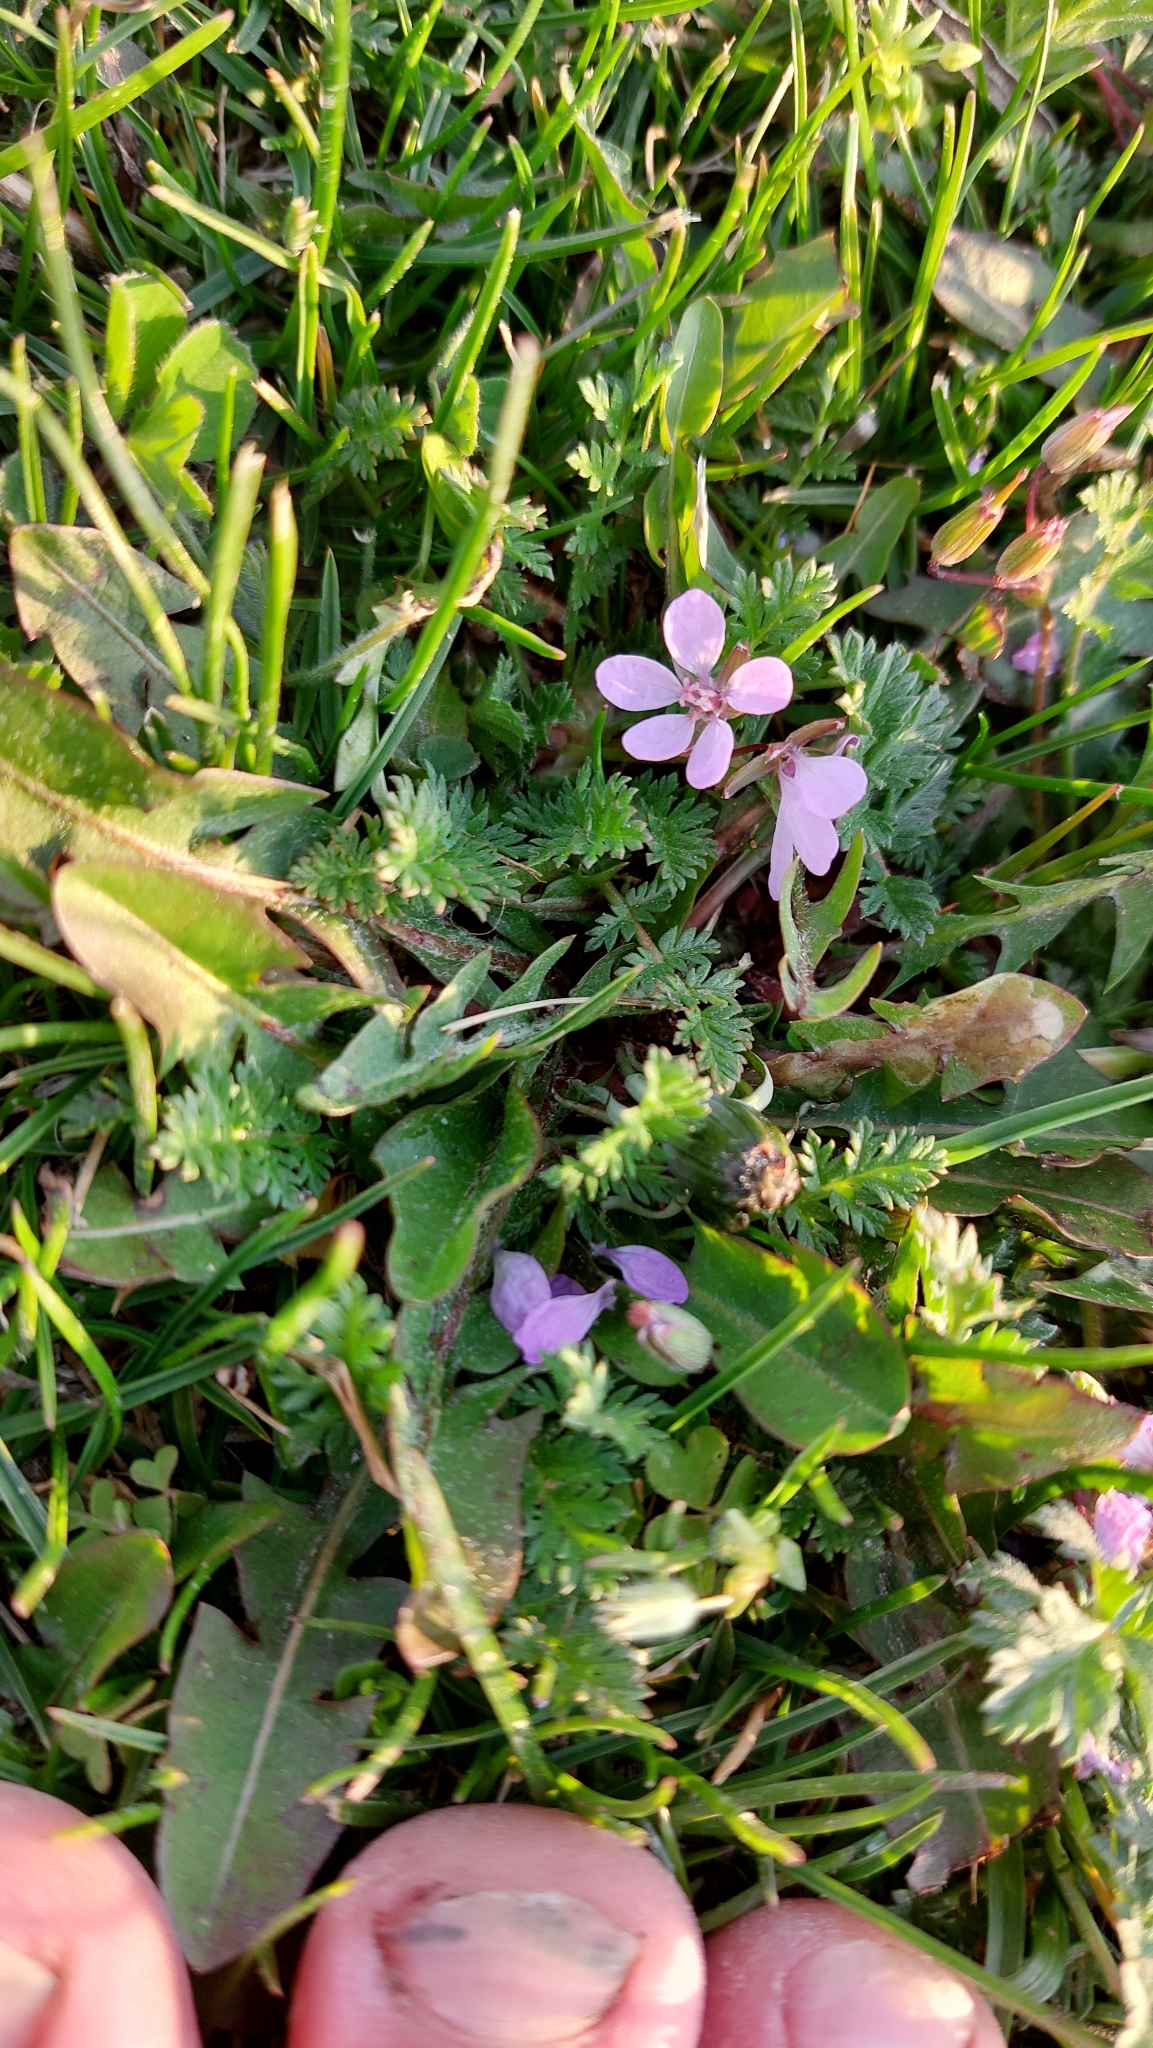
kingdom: Plantae
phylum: Tracheophyta
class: Magnoliopsida
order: Geraniales
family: Geraniaceae
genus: Erodium
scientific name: Erodium cicutarium
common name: Common stork's-bill
